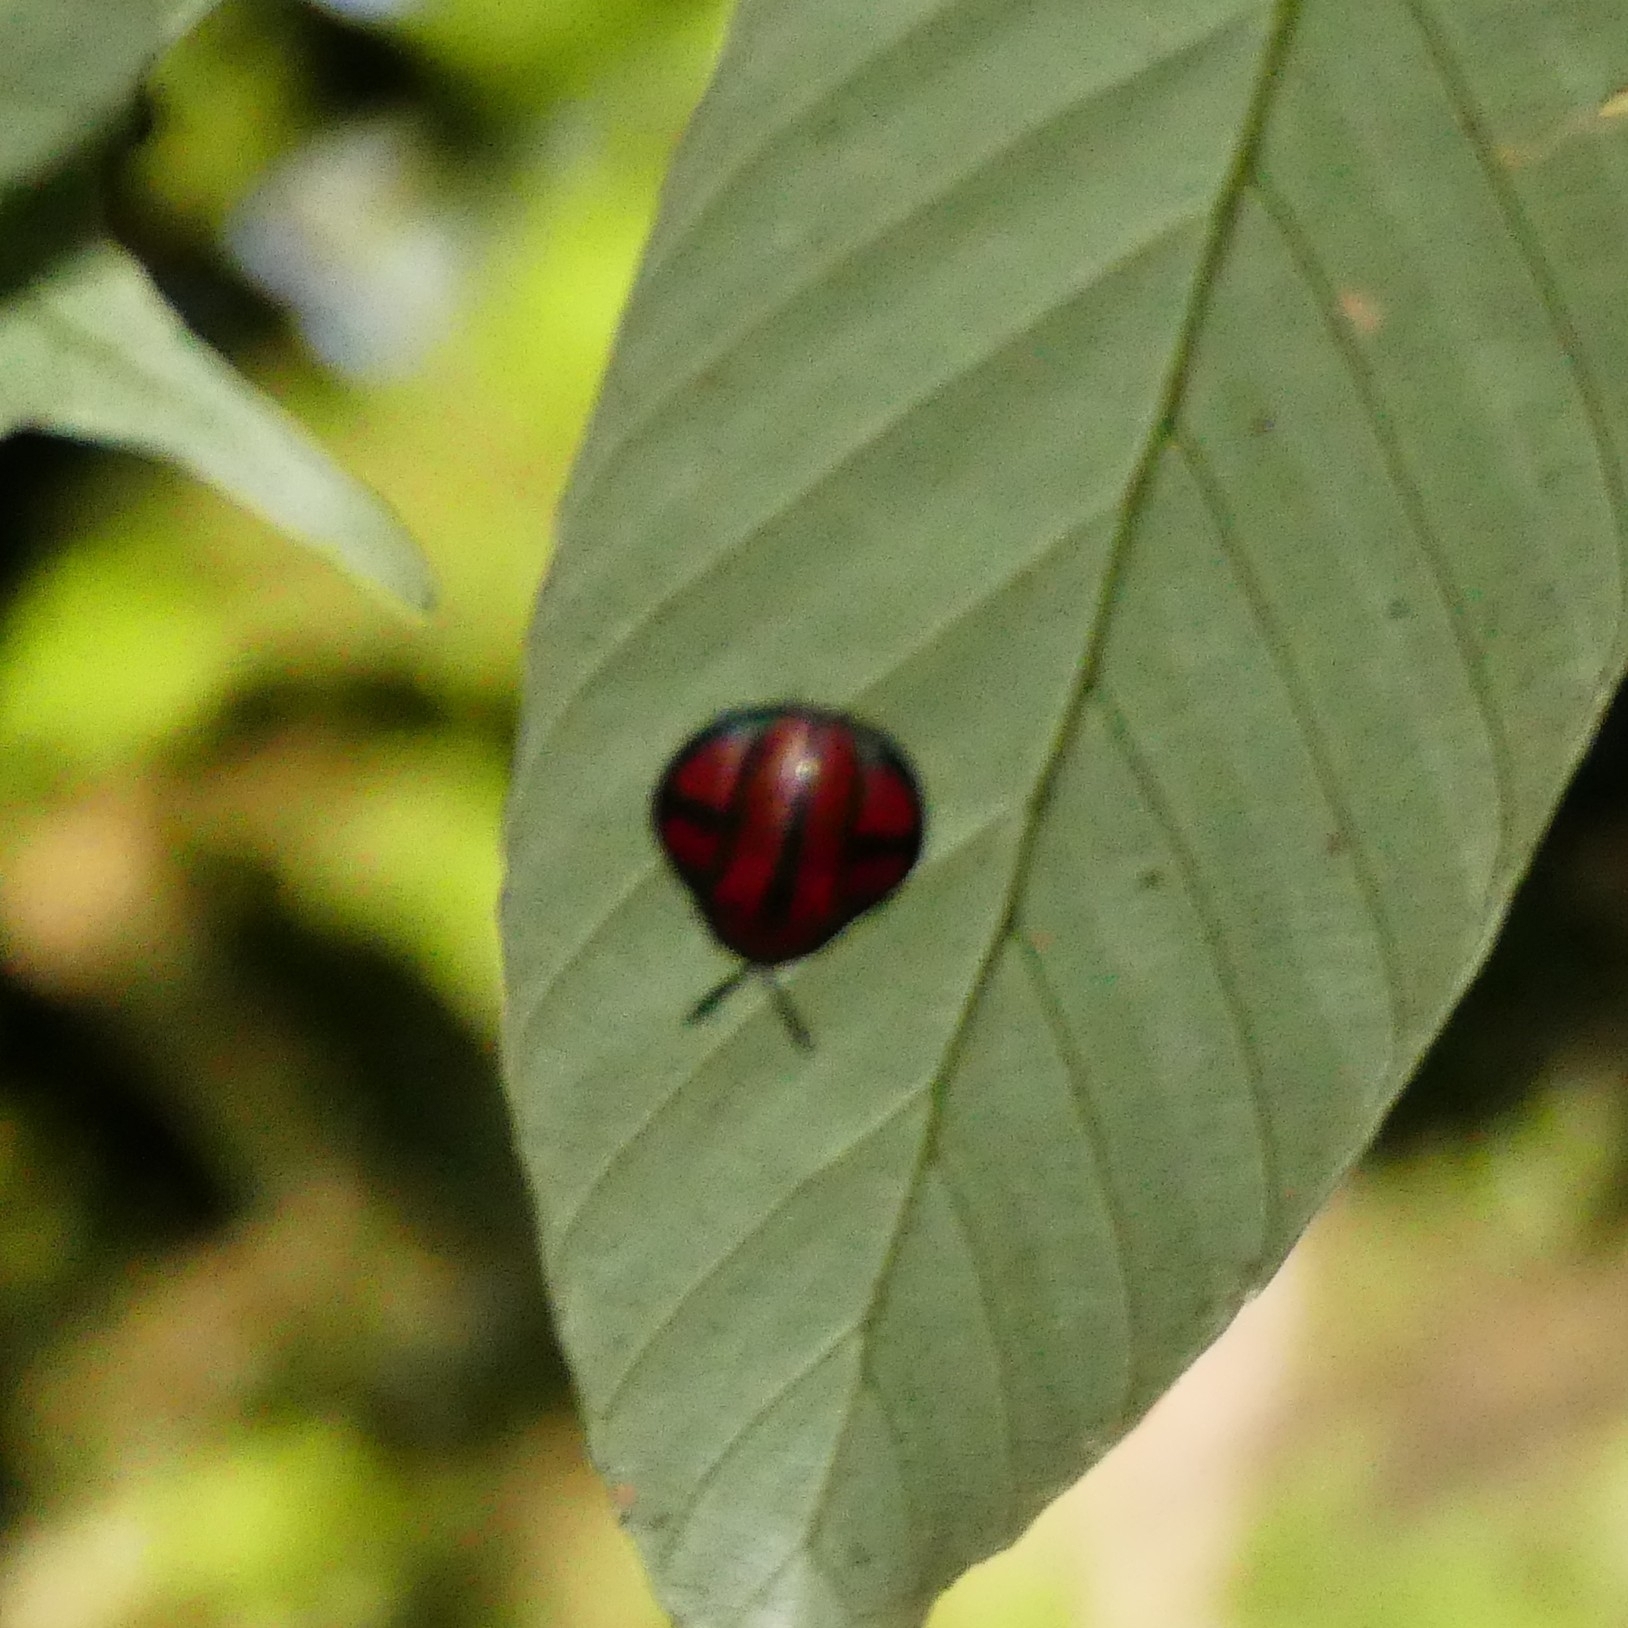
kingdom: Animalia
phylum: Arthropoda
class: Insecta
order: Coleoptera
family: Chrysomelidae
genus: Omaspides
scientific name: Omaspides clathrata
